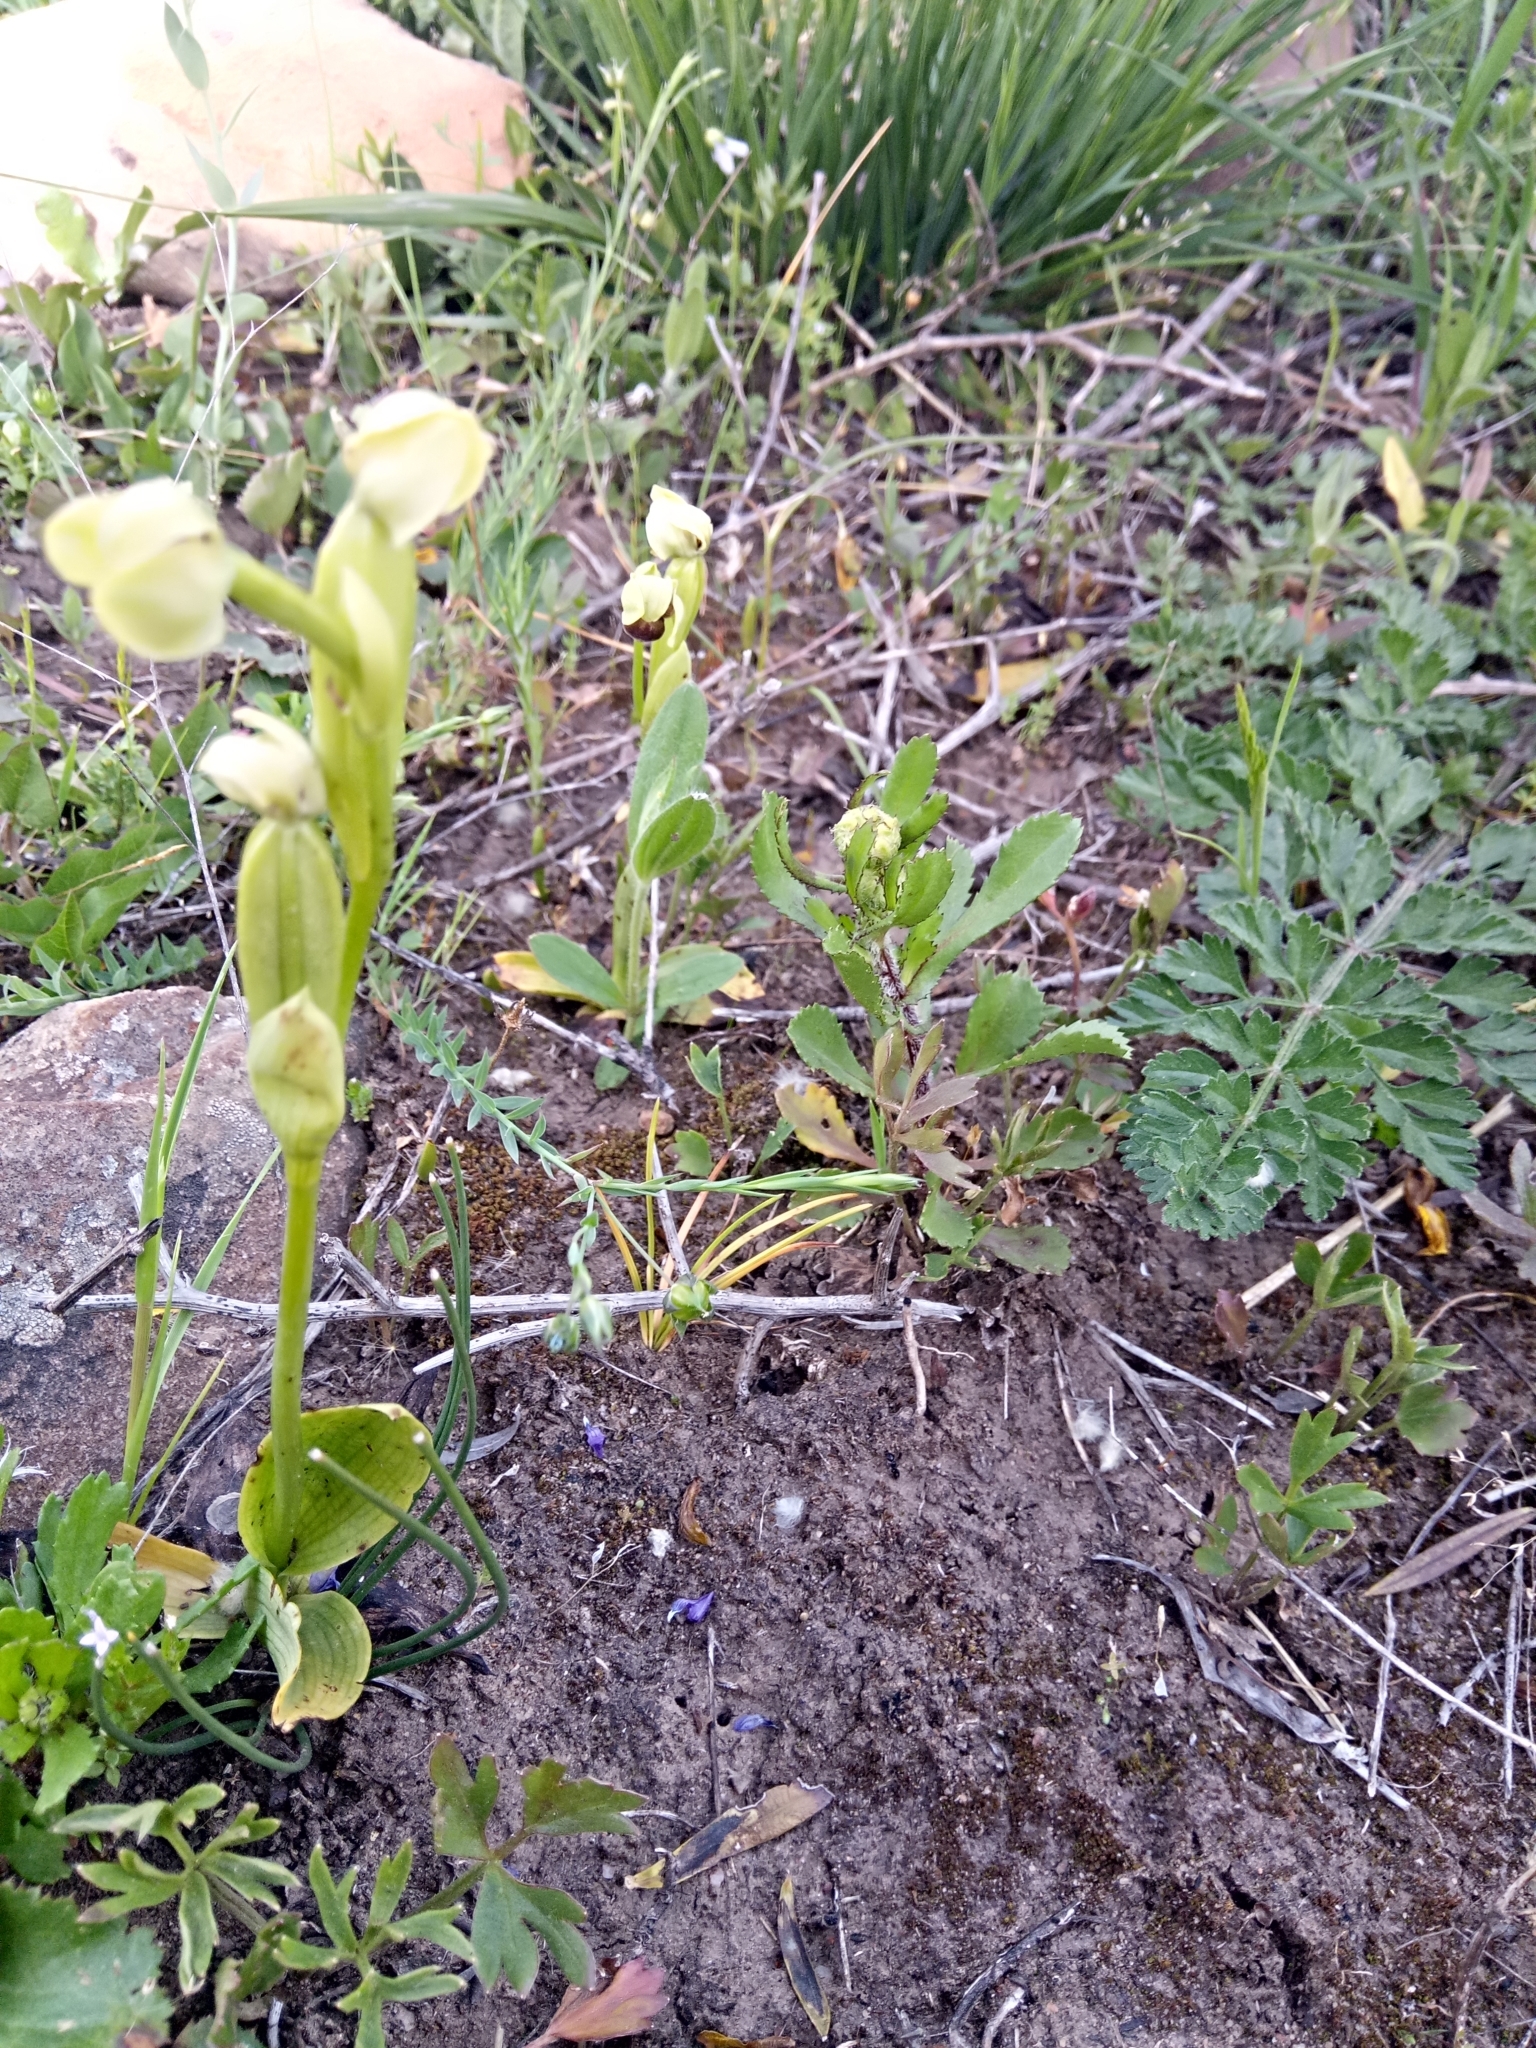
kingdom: Plantae
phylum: Tracheophyta
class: Liliopsida
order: Asparagales
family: Orchidaceae
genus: Ophrys
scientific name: Ophrys bombyliflora
